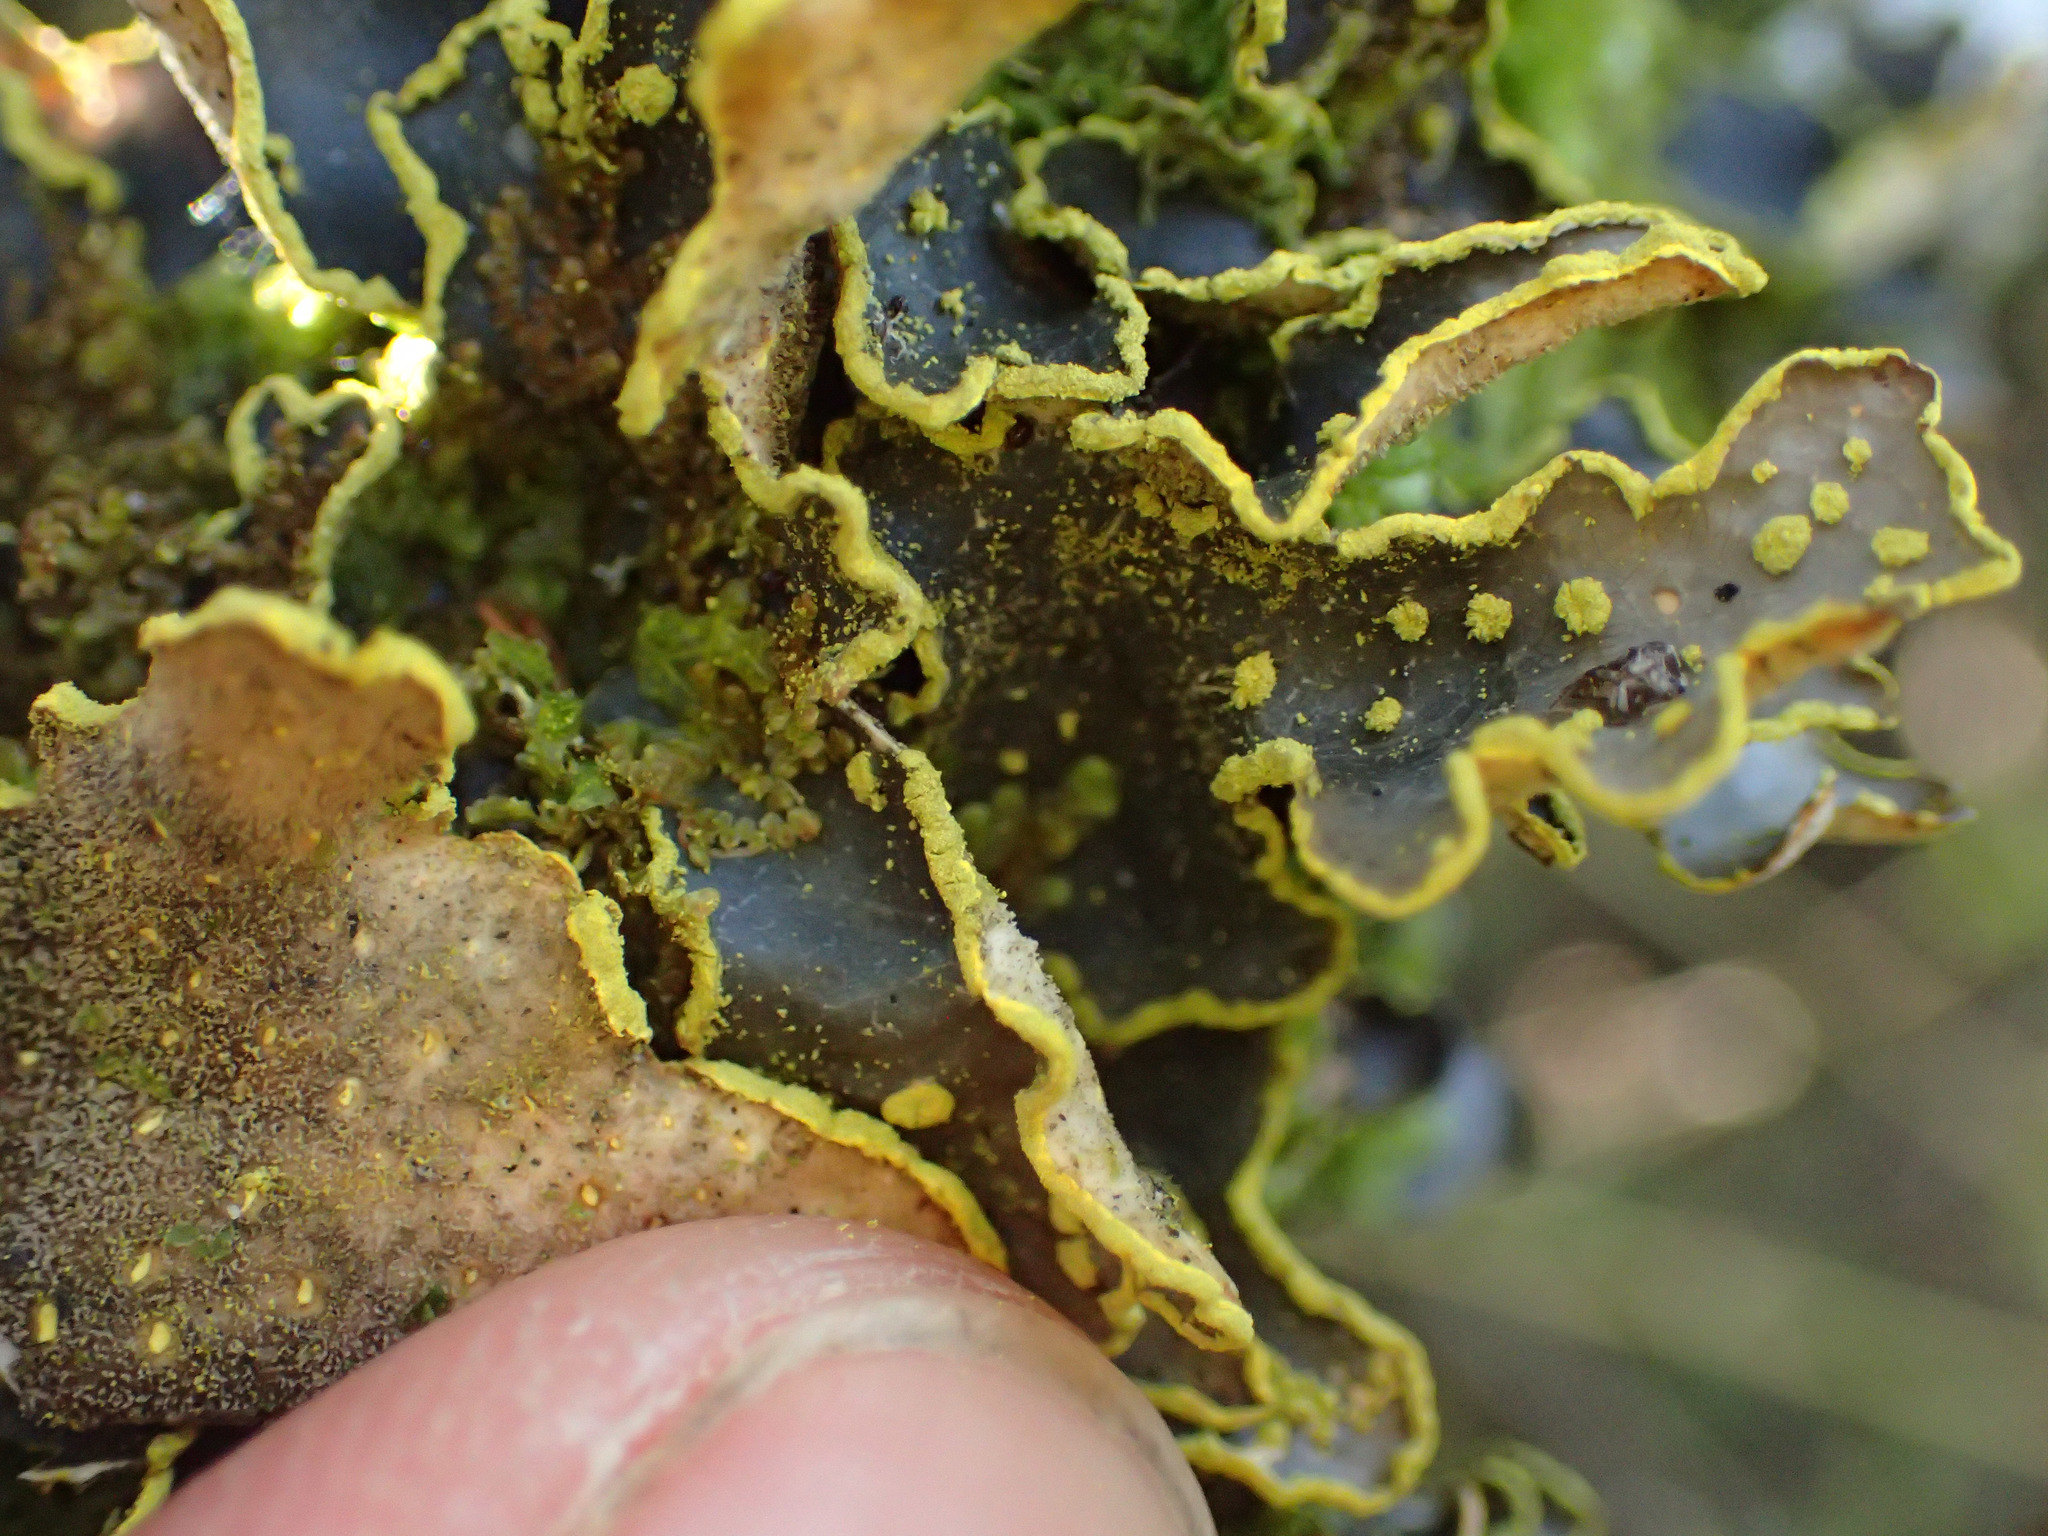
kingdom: Fungi
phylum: Ascomycota
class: Lecanoromycetes
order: Peltigerales
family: Lobariaceae
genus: Pseudocyphellaria
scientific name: Pseudocyphellaria crocata
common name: Golden specklebelly
